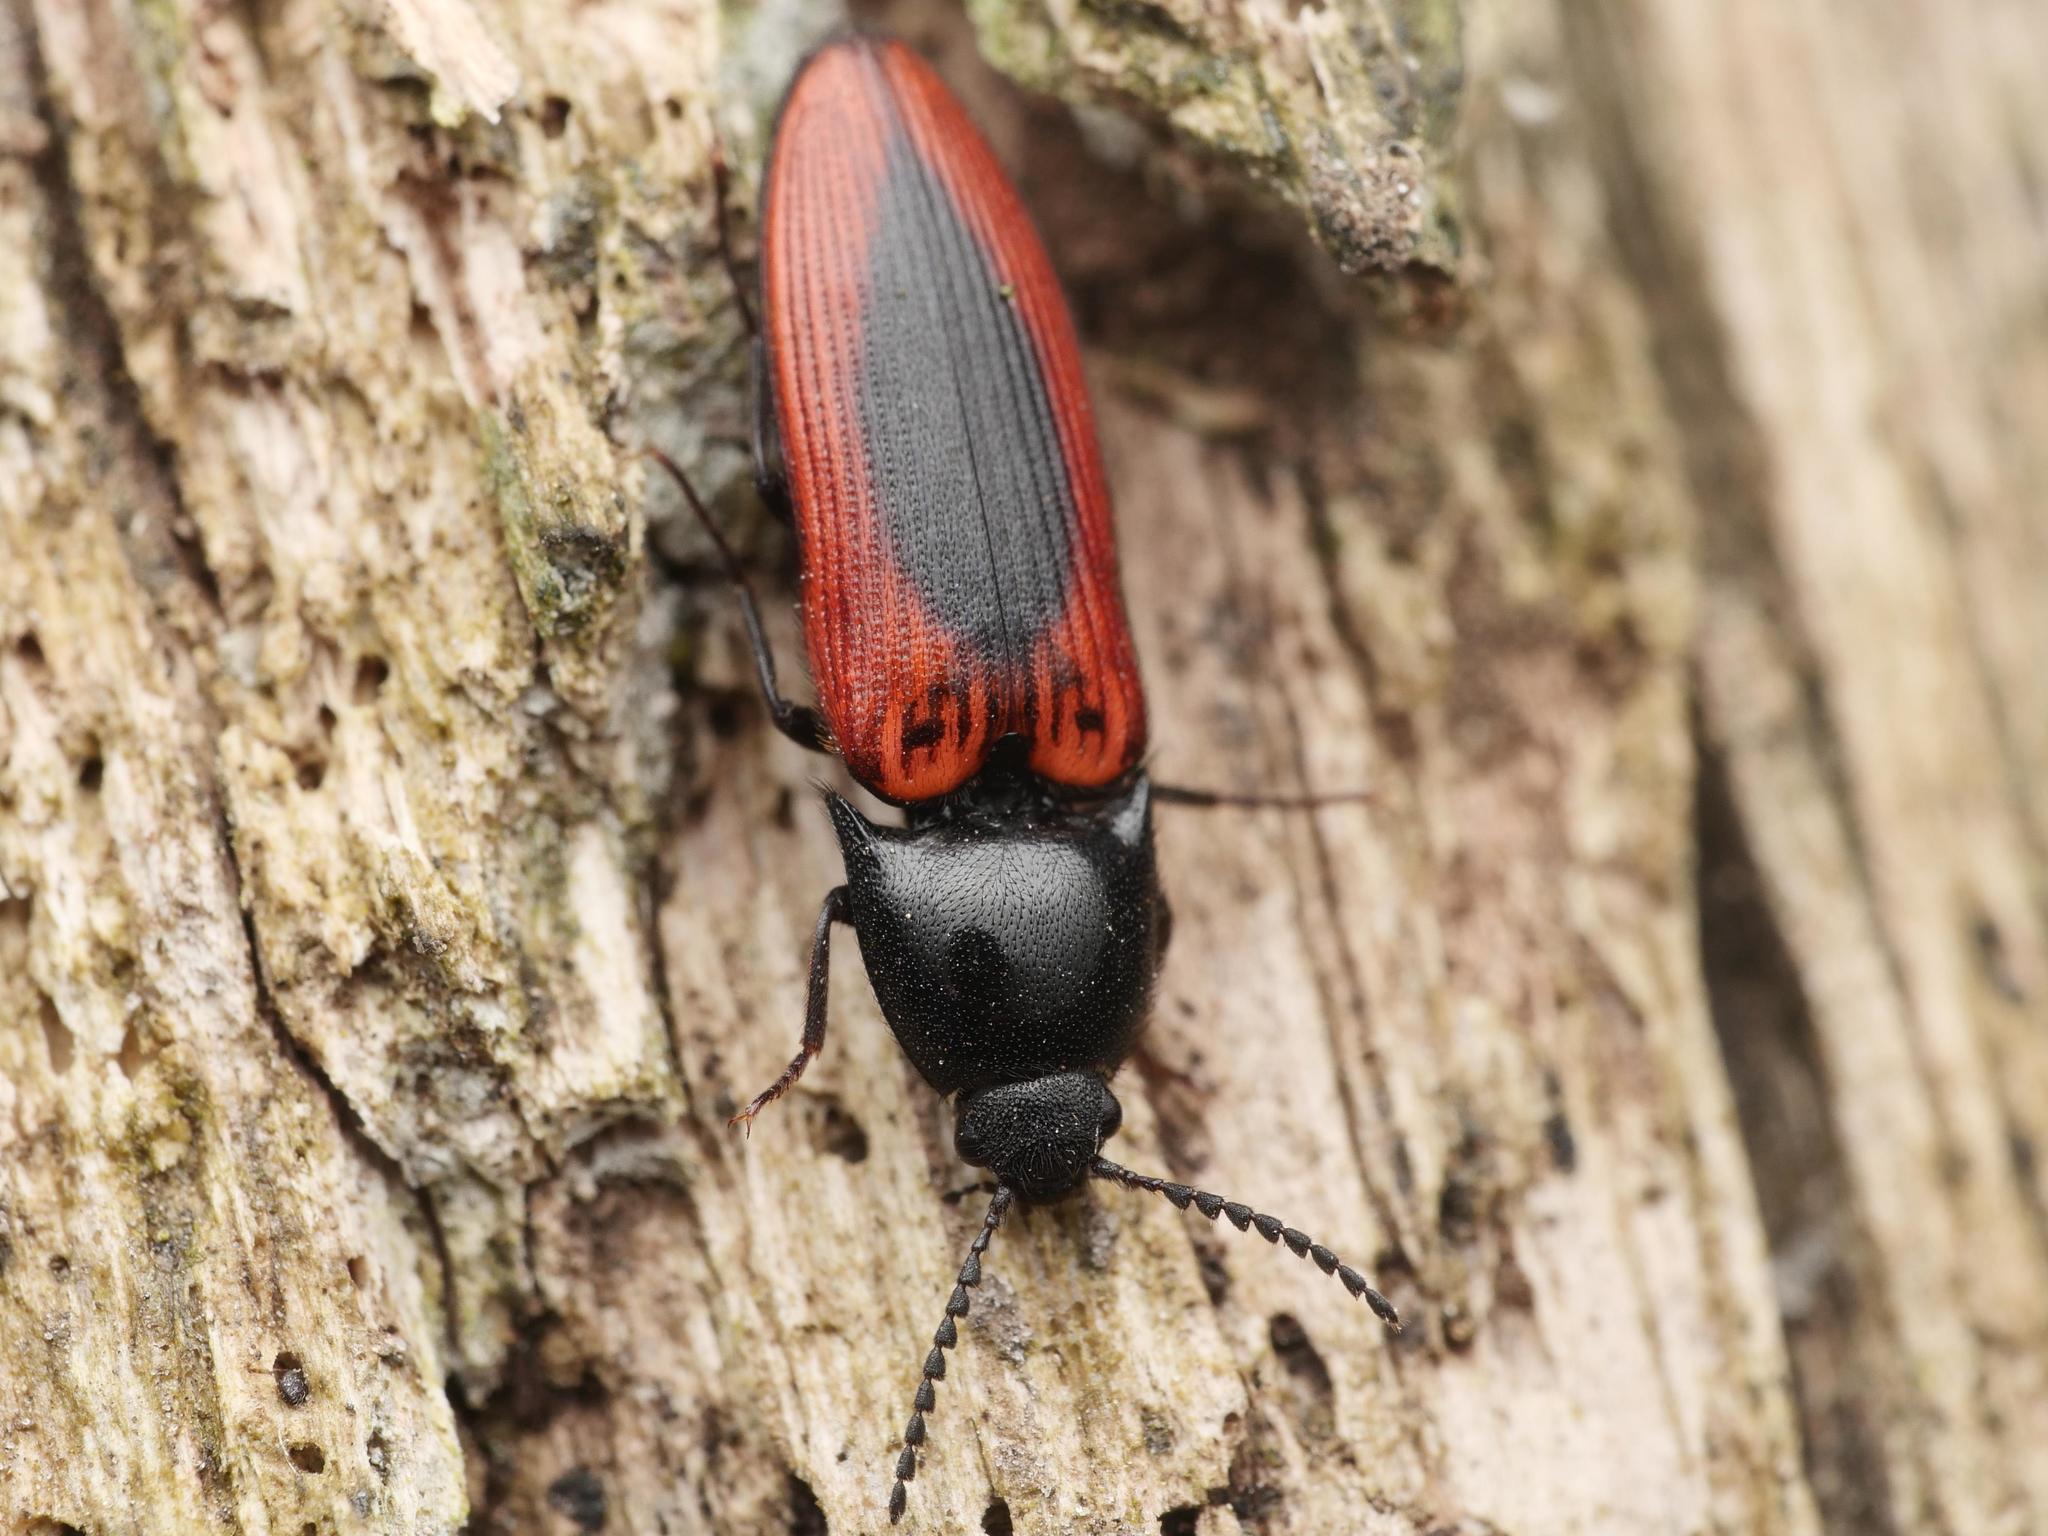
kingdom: Animalia
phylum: Arthropoda
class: Insecta
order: Coleoptera
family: Elateridae
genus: Ampedus
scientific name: Ampedus sanguinolentus
